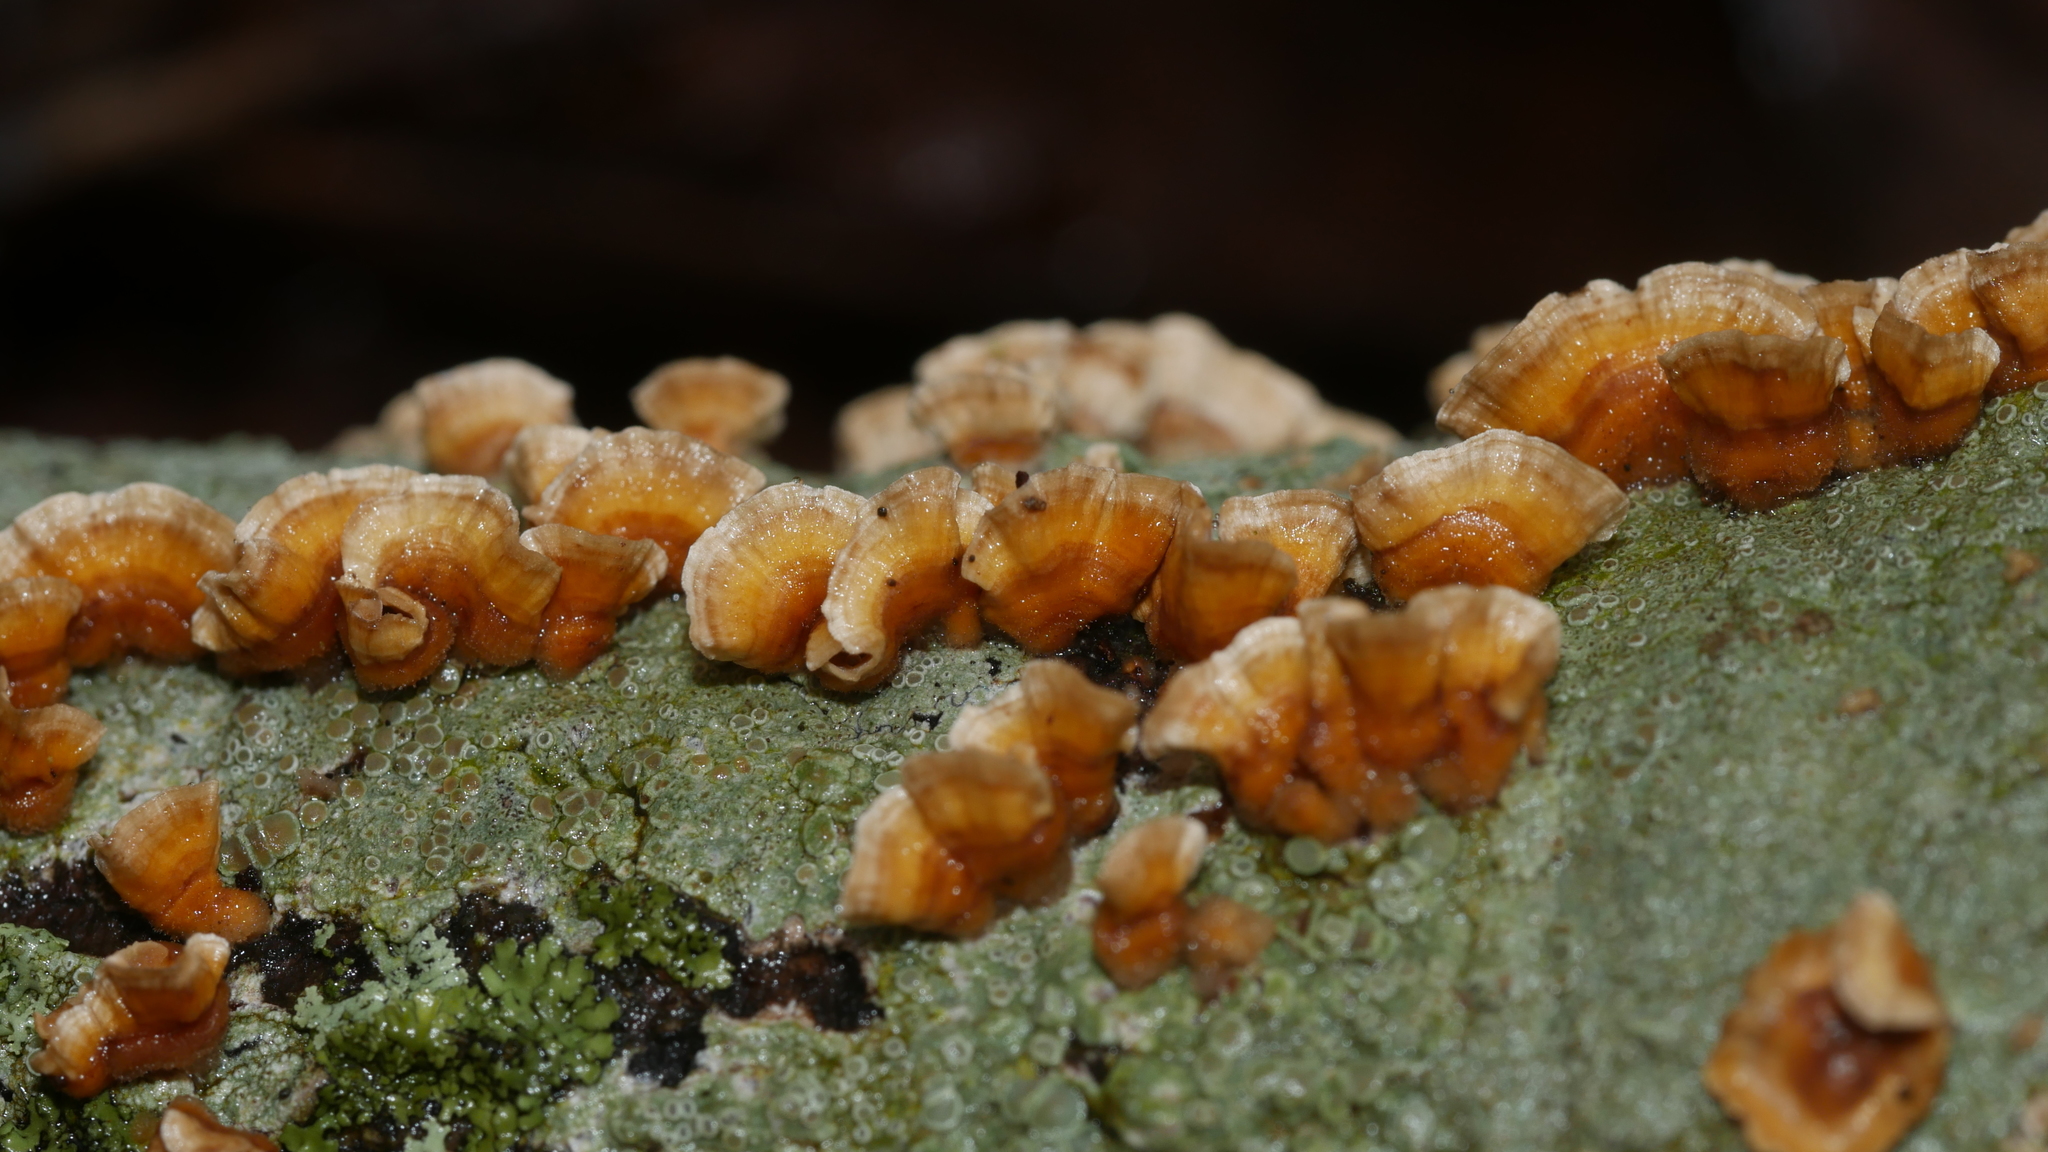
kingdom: Fungi
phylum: Basidiomycota
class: Agaricomycetes
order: Russulales
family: Stereaceae
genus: Stereum
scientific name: Stereum complicatum
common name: Crowded parchment
